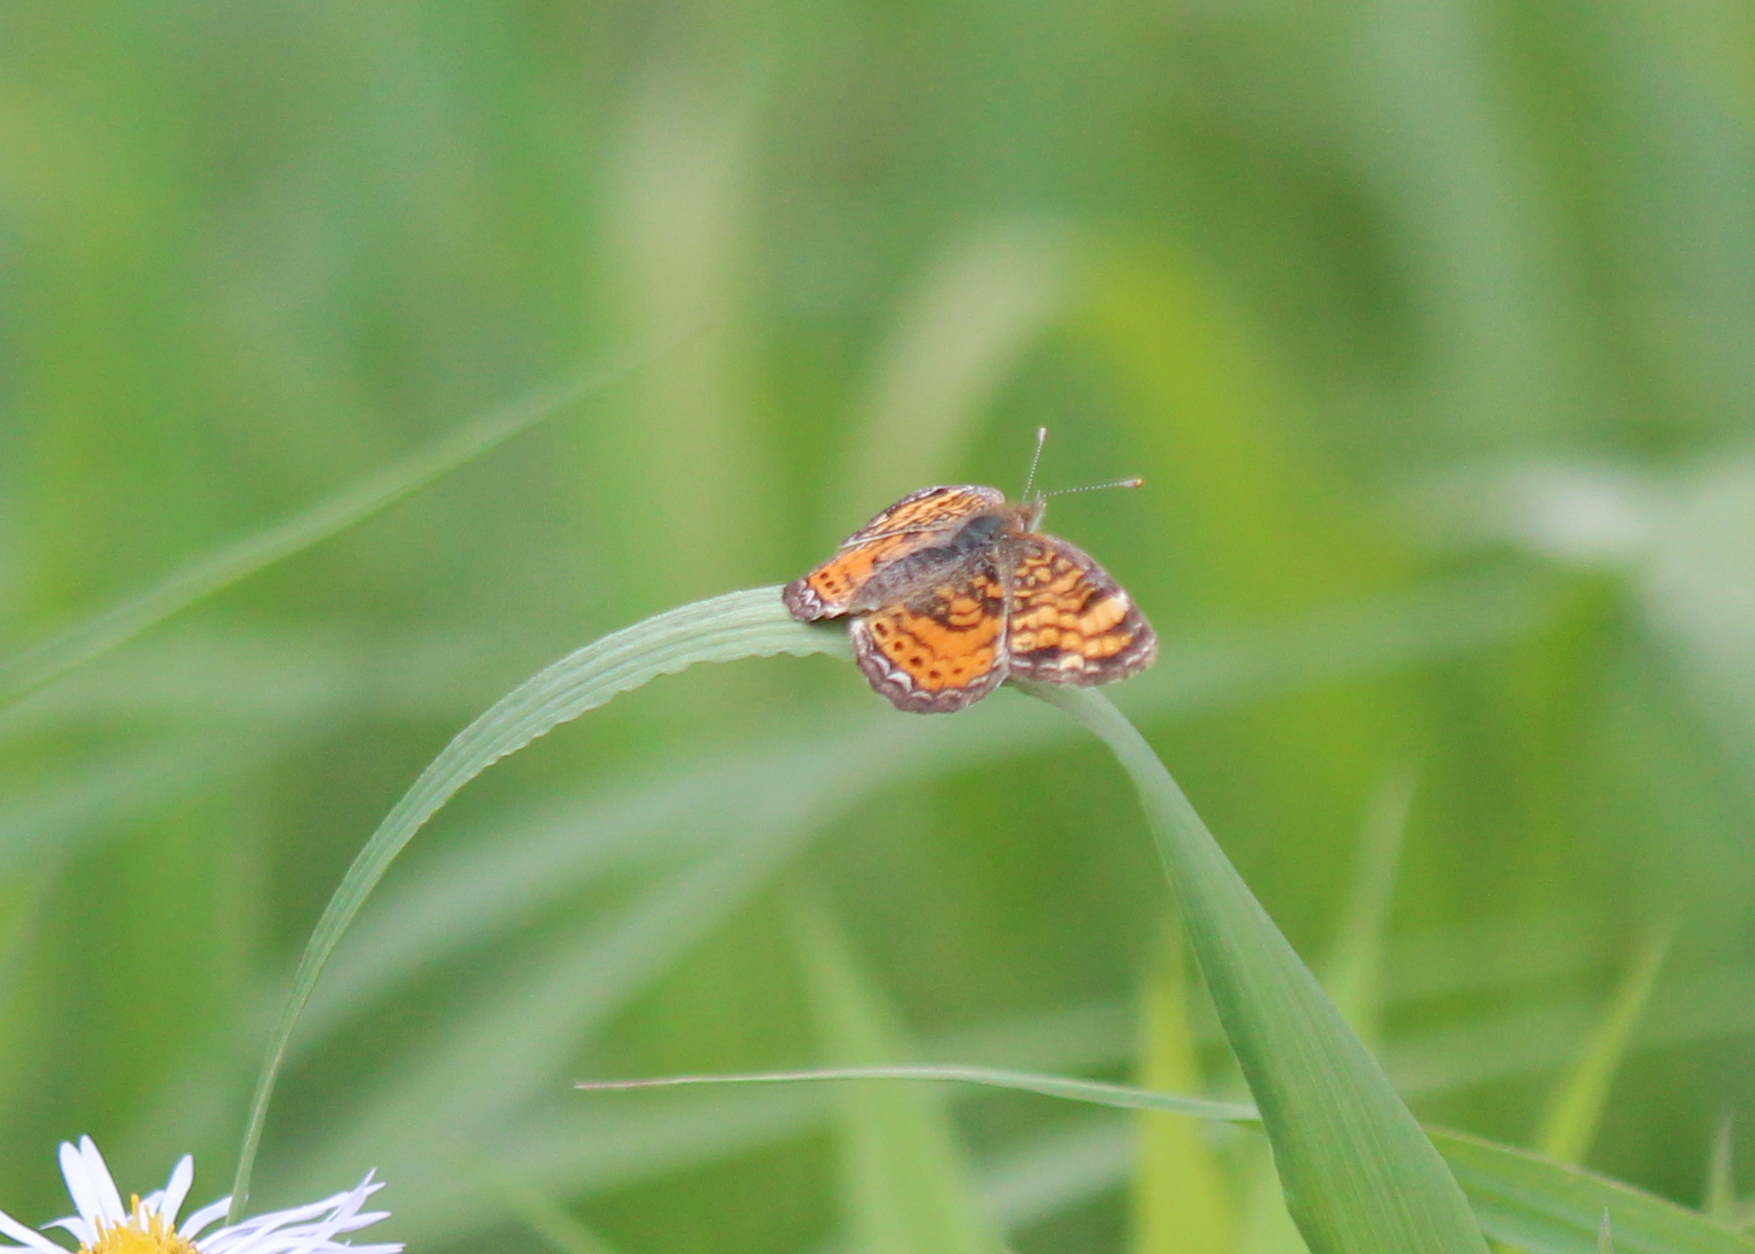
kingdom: Animalia
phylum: Arthropoda
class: Insecta
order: Lepidoptera
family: Nymphalidae
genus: Phyciodes
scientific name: Phyciodes tharos
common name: Pearl crescent
